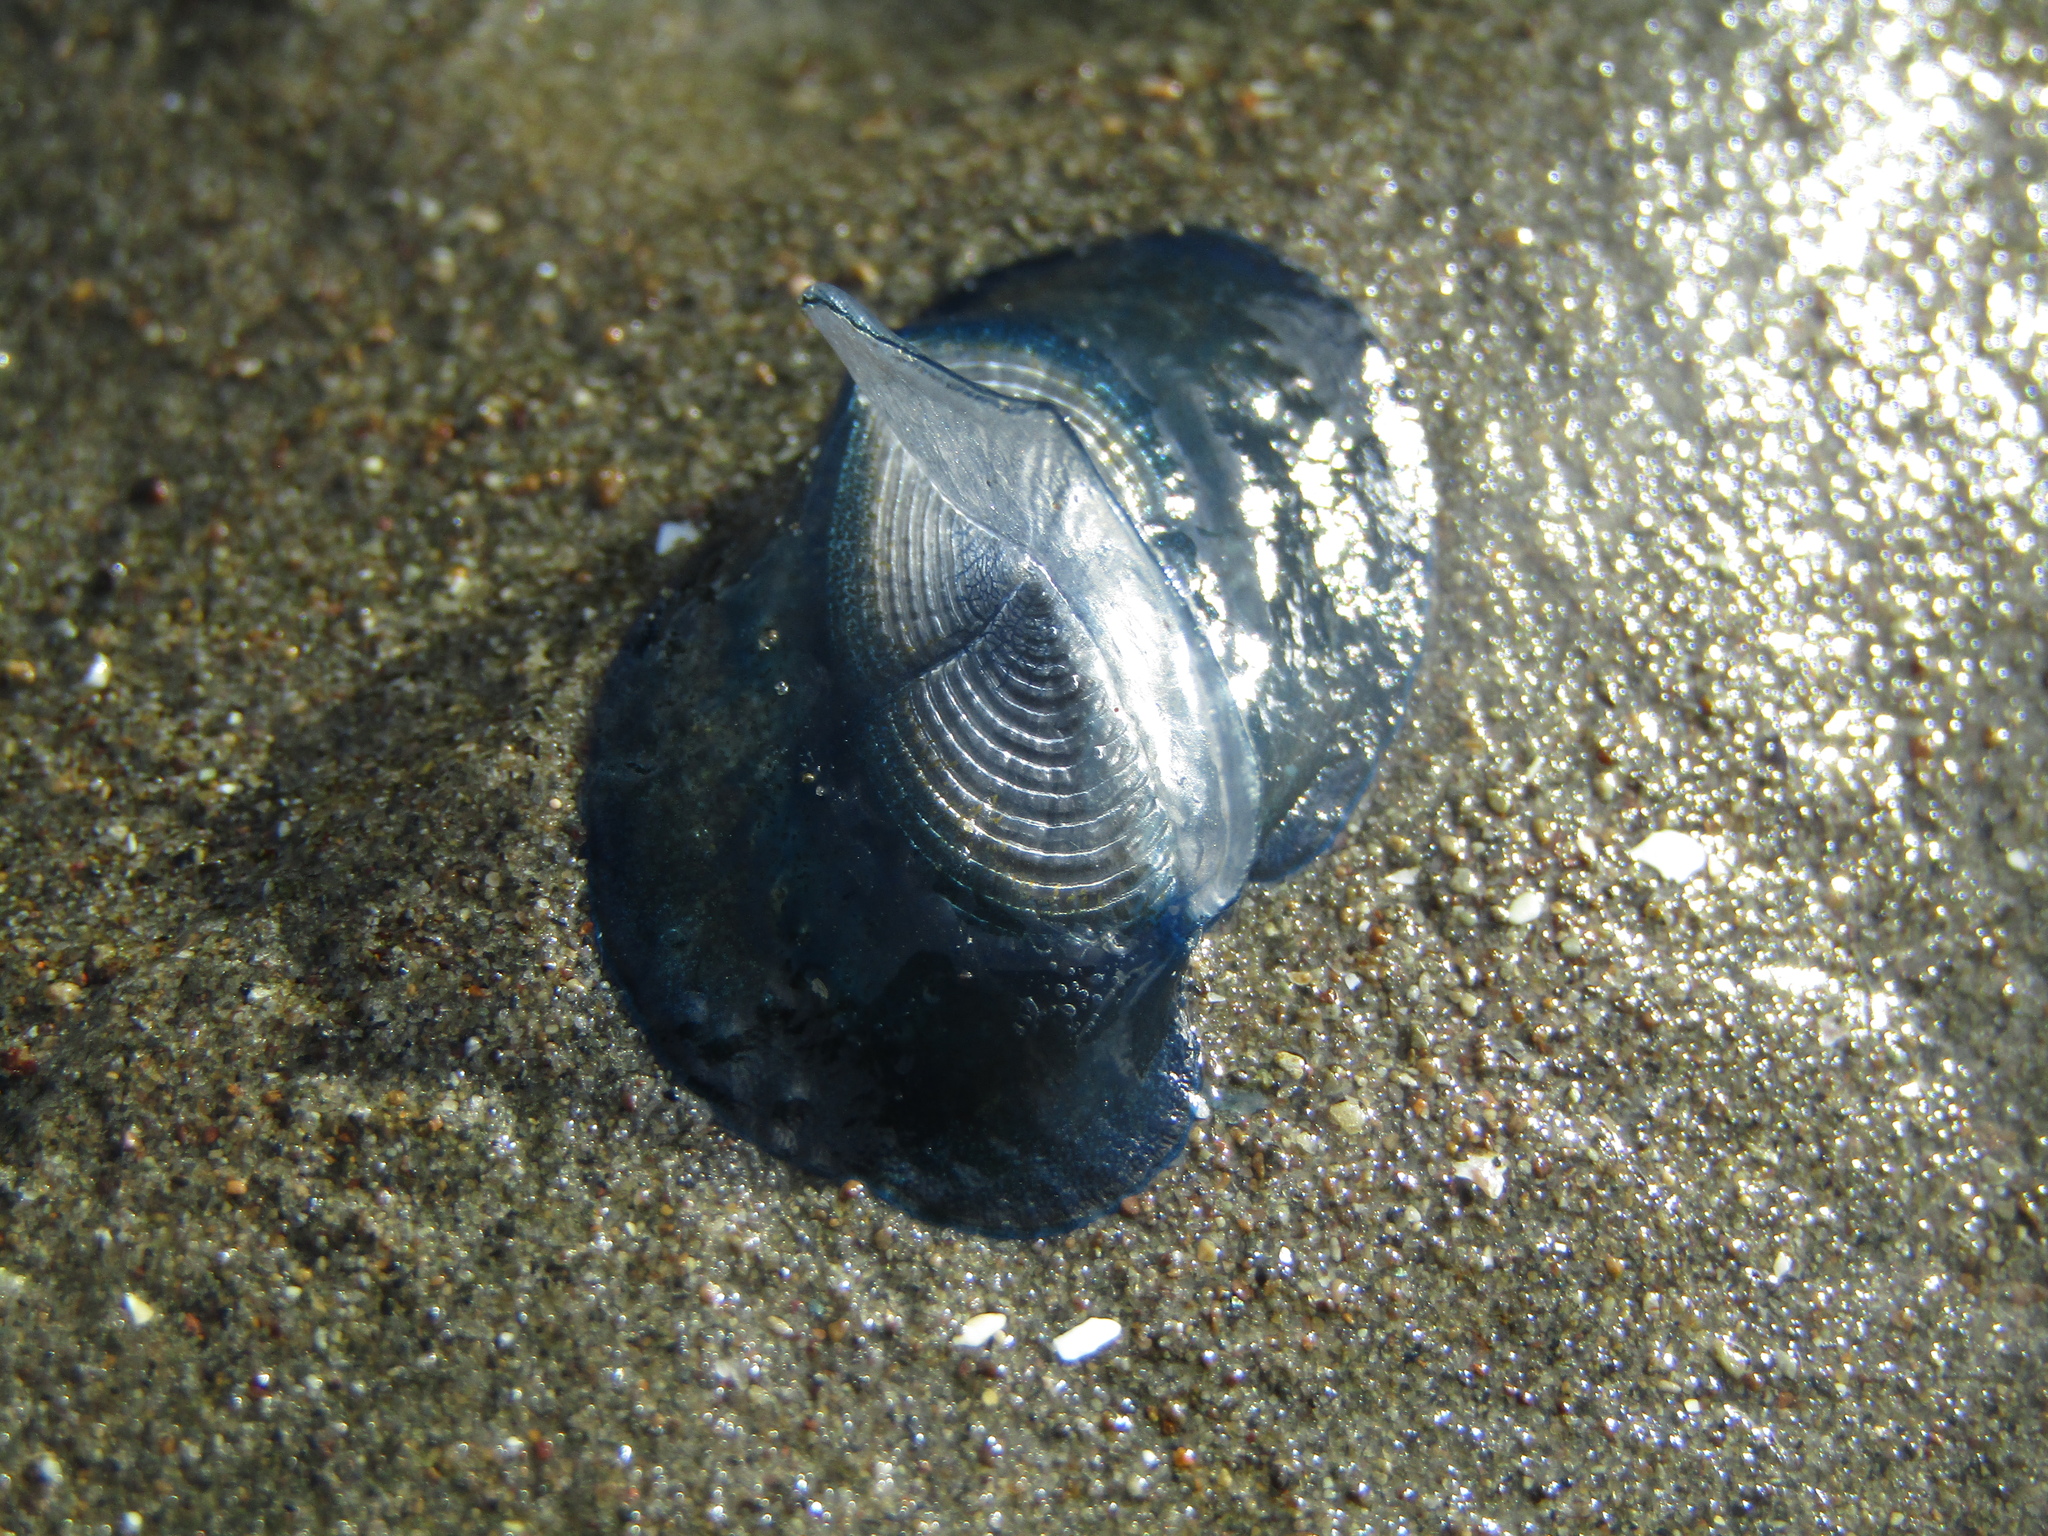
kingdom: Animalia
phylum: Cnidaria
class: Hydrozoa
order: Anthoathecata
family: Porpitidae
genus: Velella
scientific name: Velella velella
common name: By-the-wind-sailor
